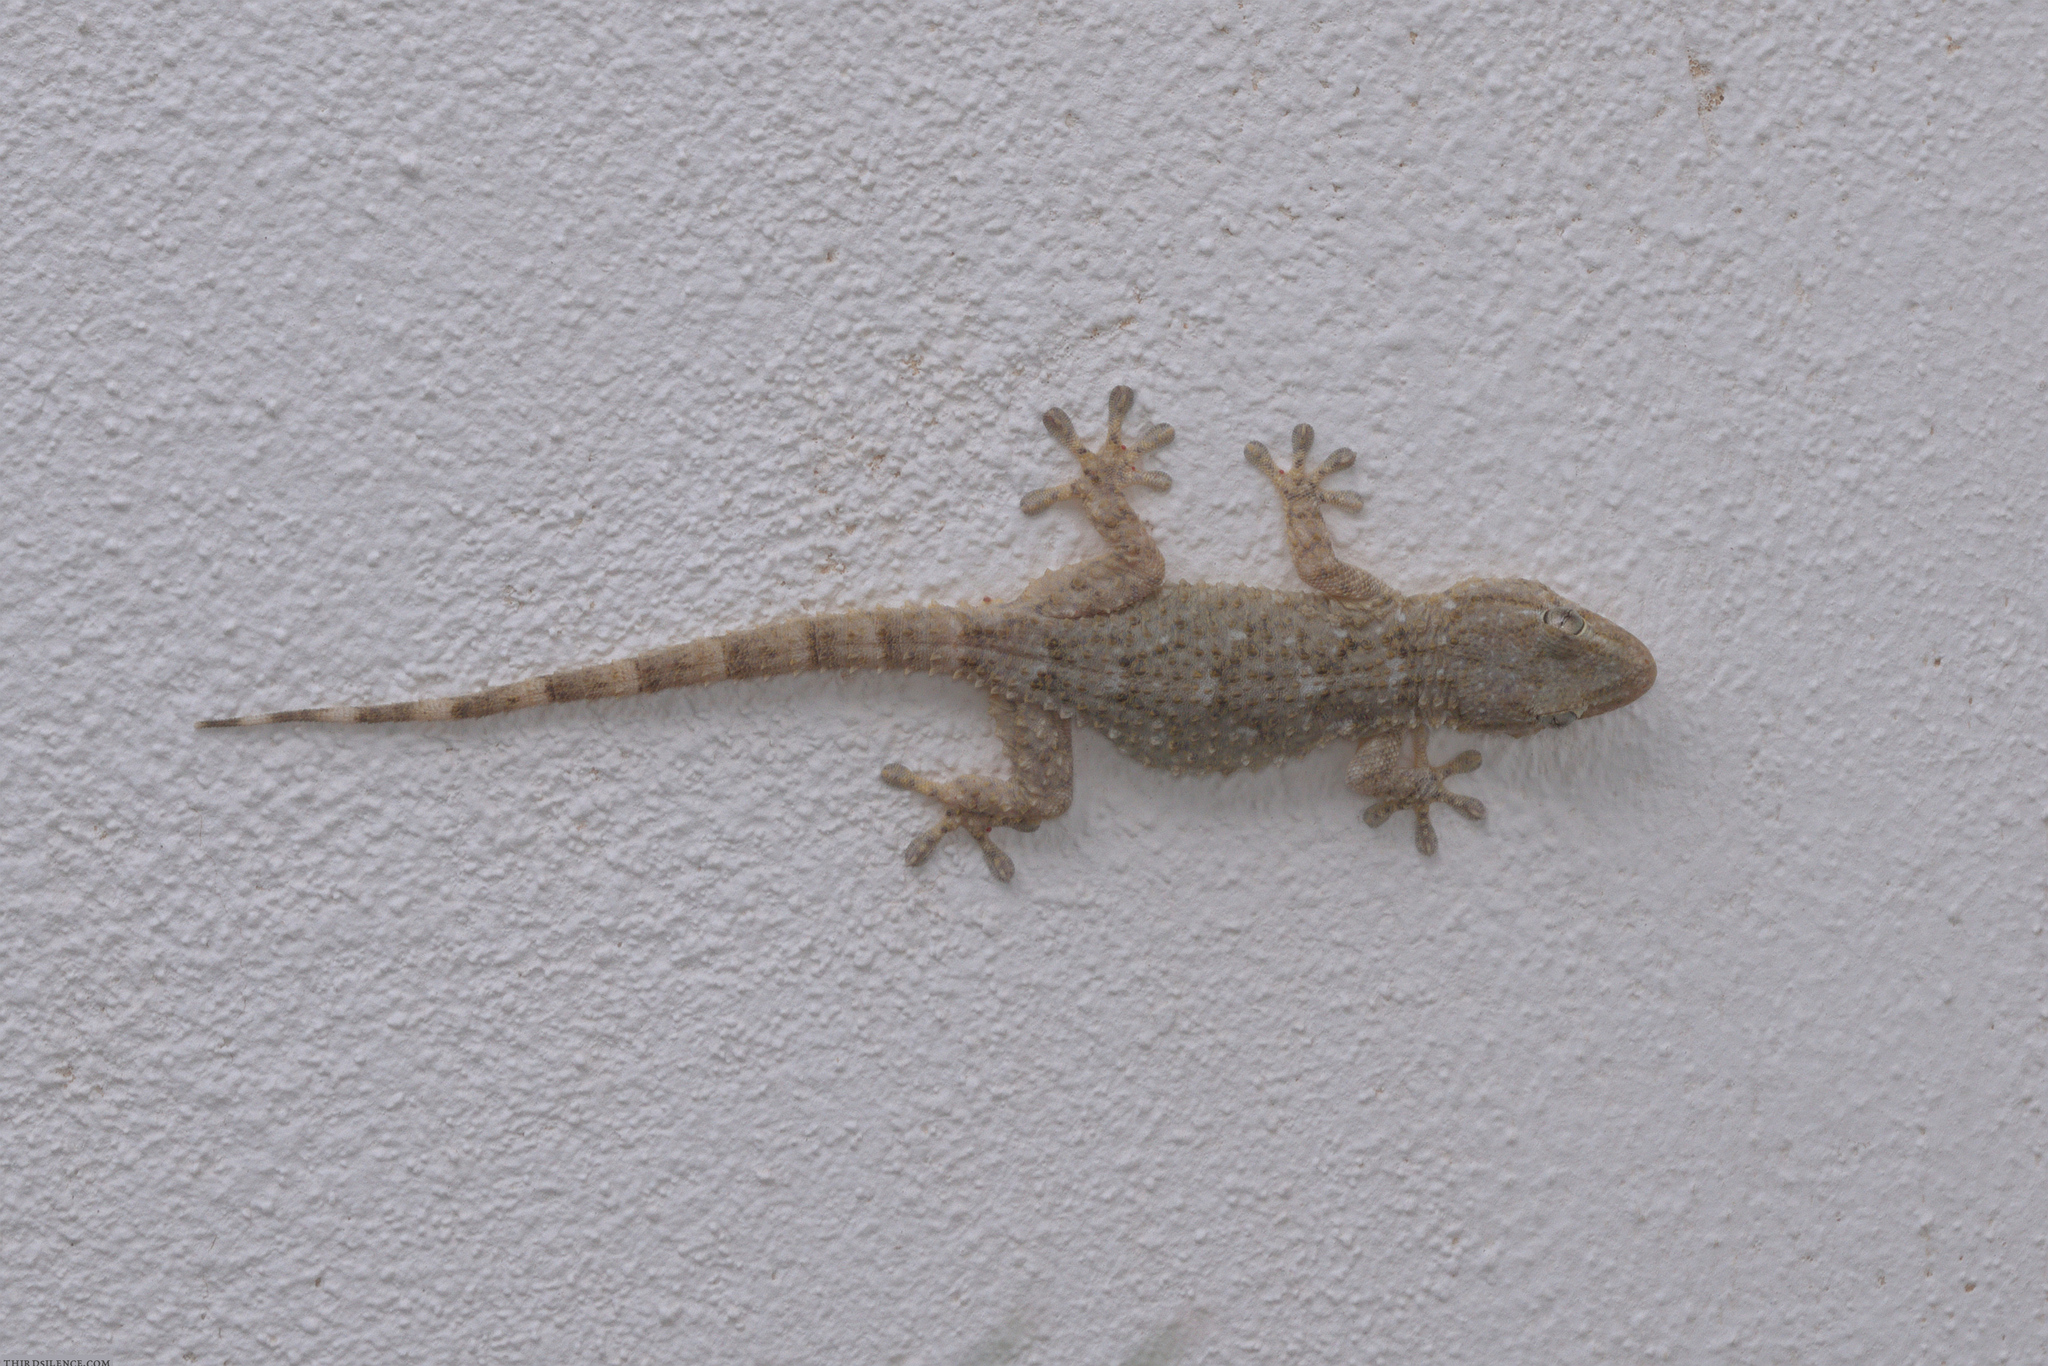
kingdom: Animalia
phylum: Chordata
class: Squamata
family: Phyllodactylidae
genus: Tarentola
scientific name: Tarentola mauritanica
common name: Moorish gecko
